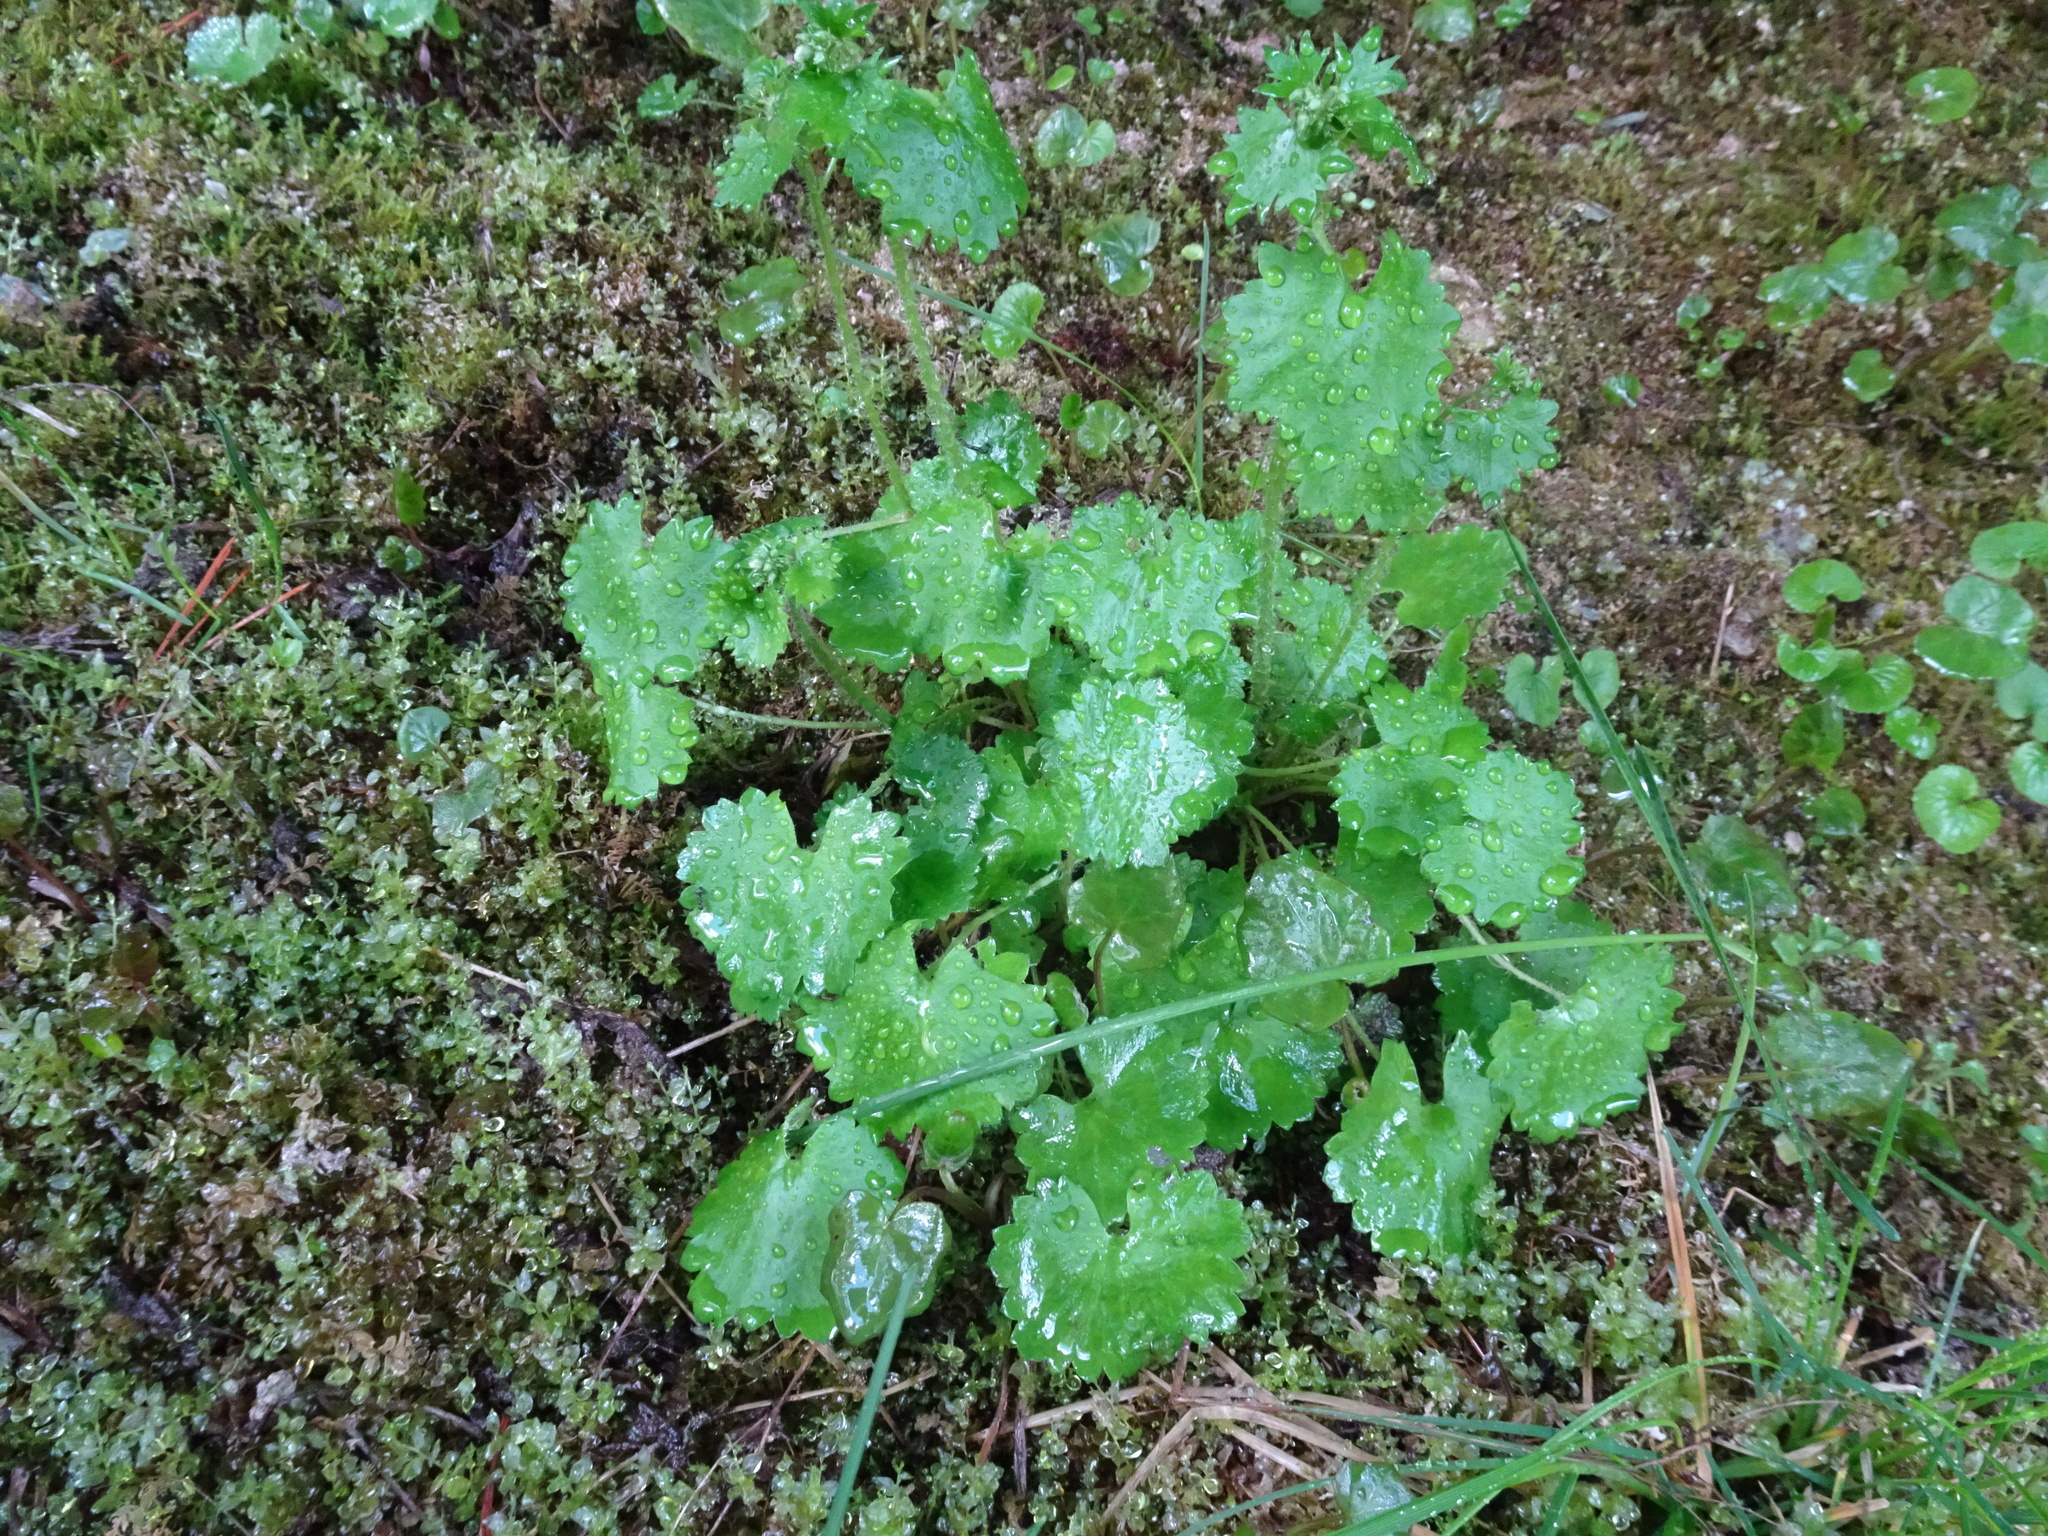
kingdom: Plantae
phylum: Tracheophyta
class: Magnoliopsida
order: Saxifragales
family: Saxifragaceae
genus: Saxifraga
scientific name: Saxifraga rotundifolia
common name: Round-leaved saxifrage
